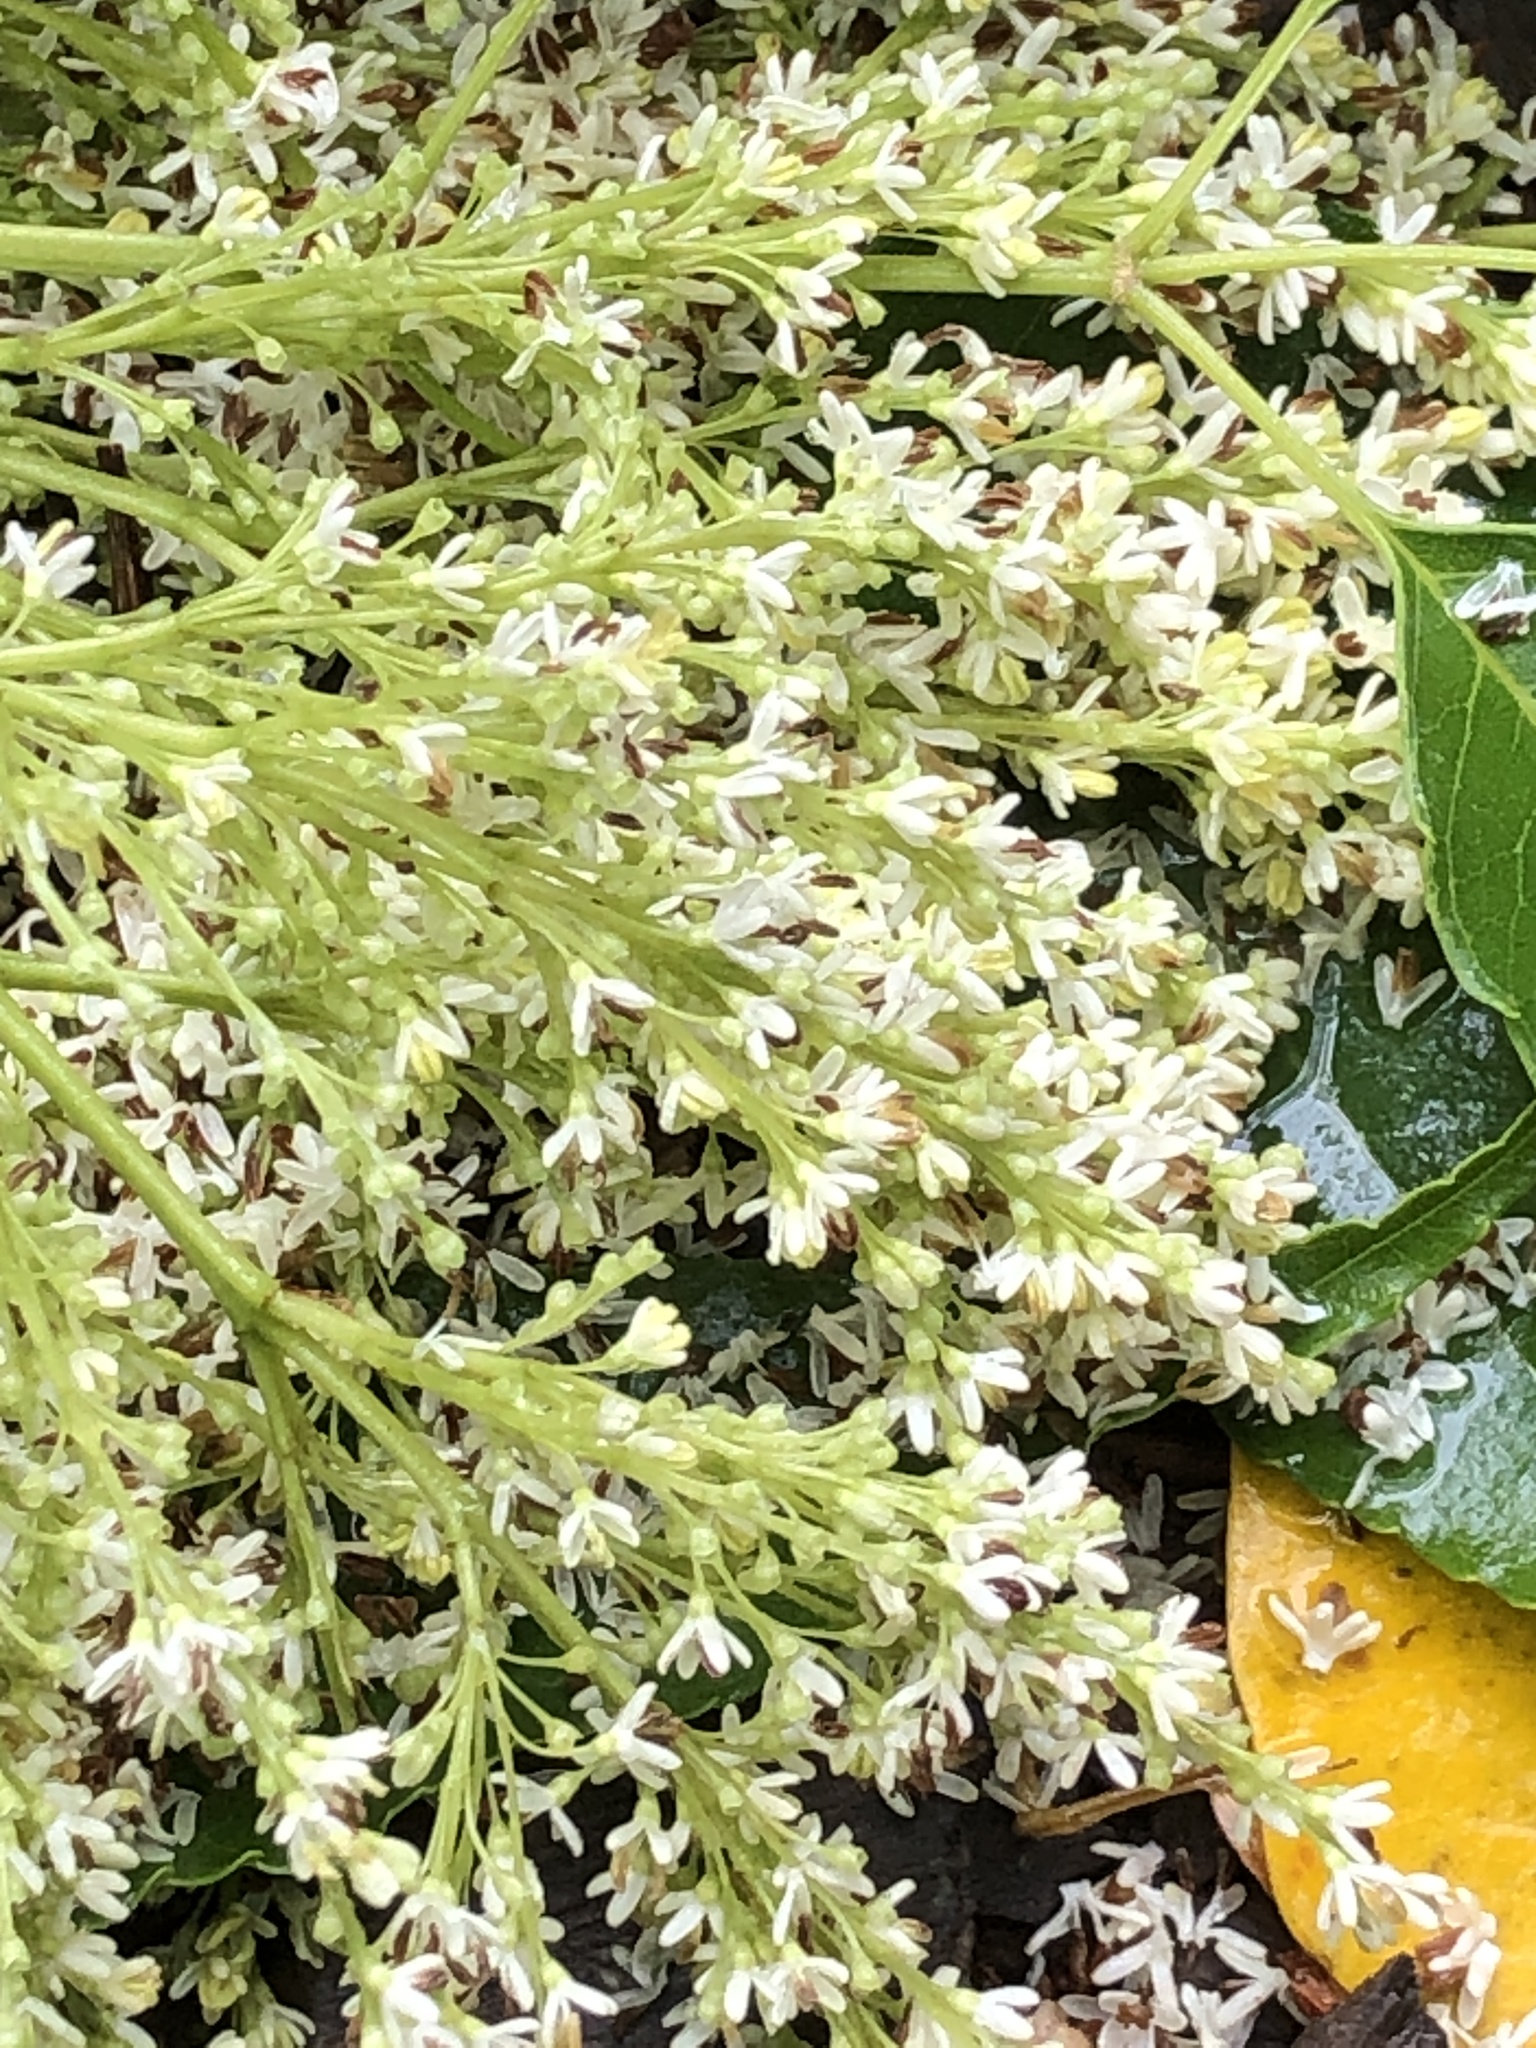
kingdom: Plantae
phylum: Tracheophyta
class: Magnoliopsida
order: Lamiales
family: Oleaceae
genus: Fraxinus
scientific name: Fraxinus insularis
